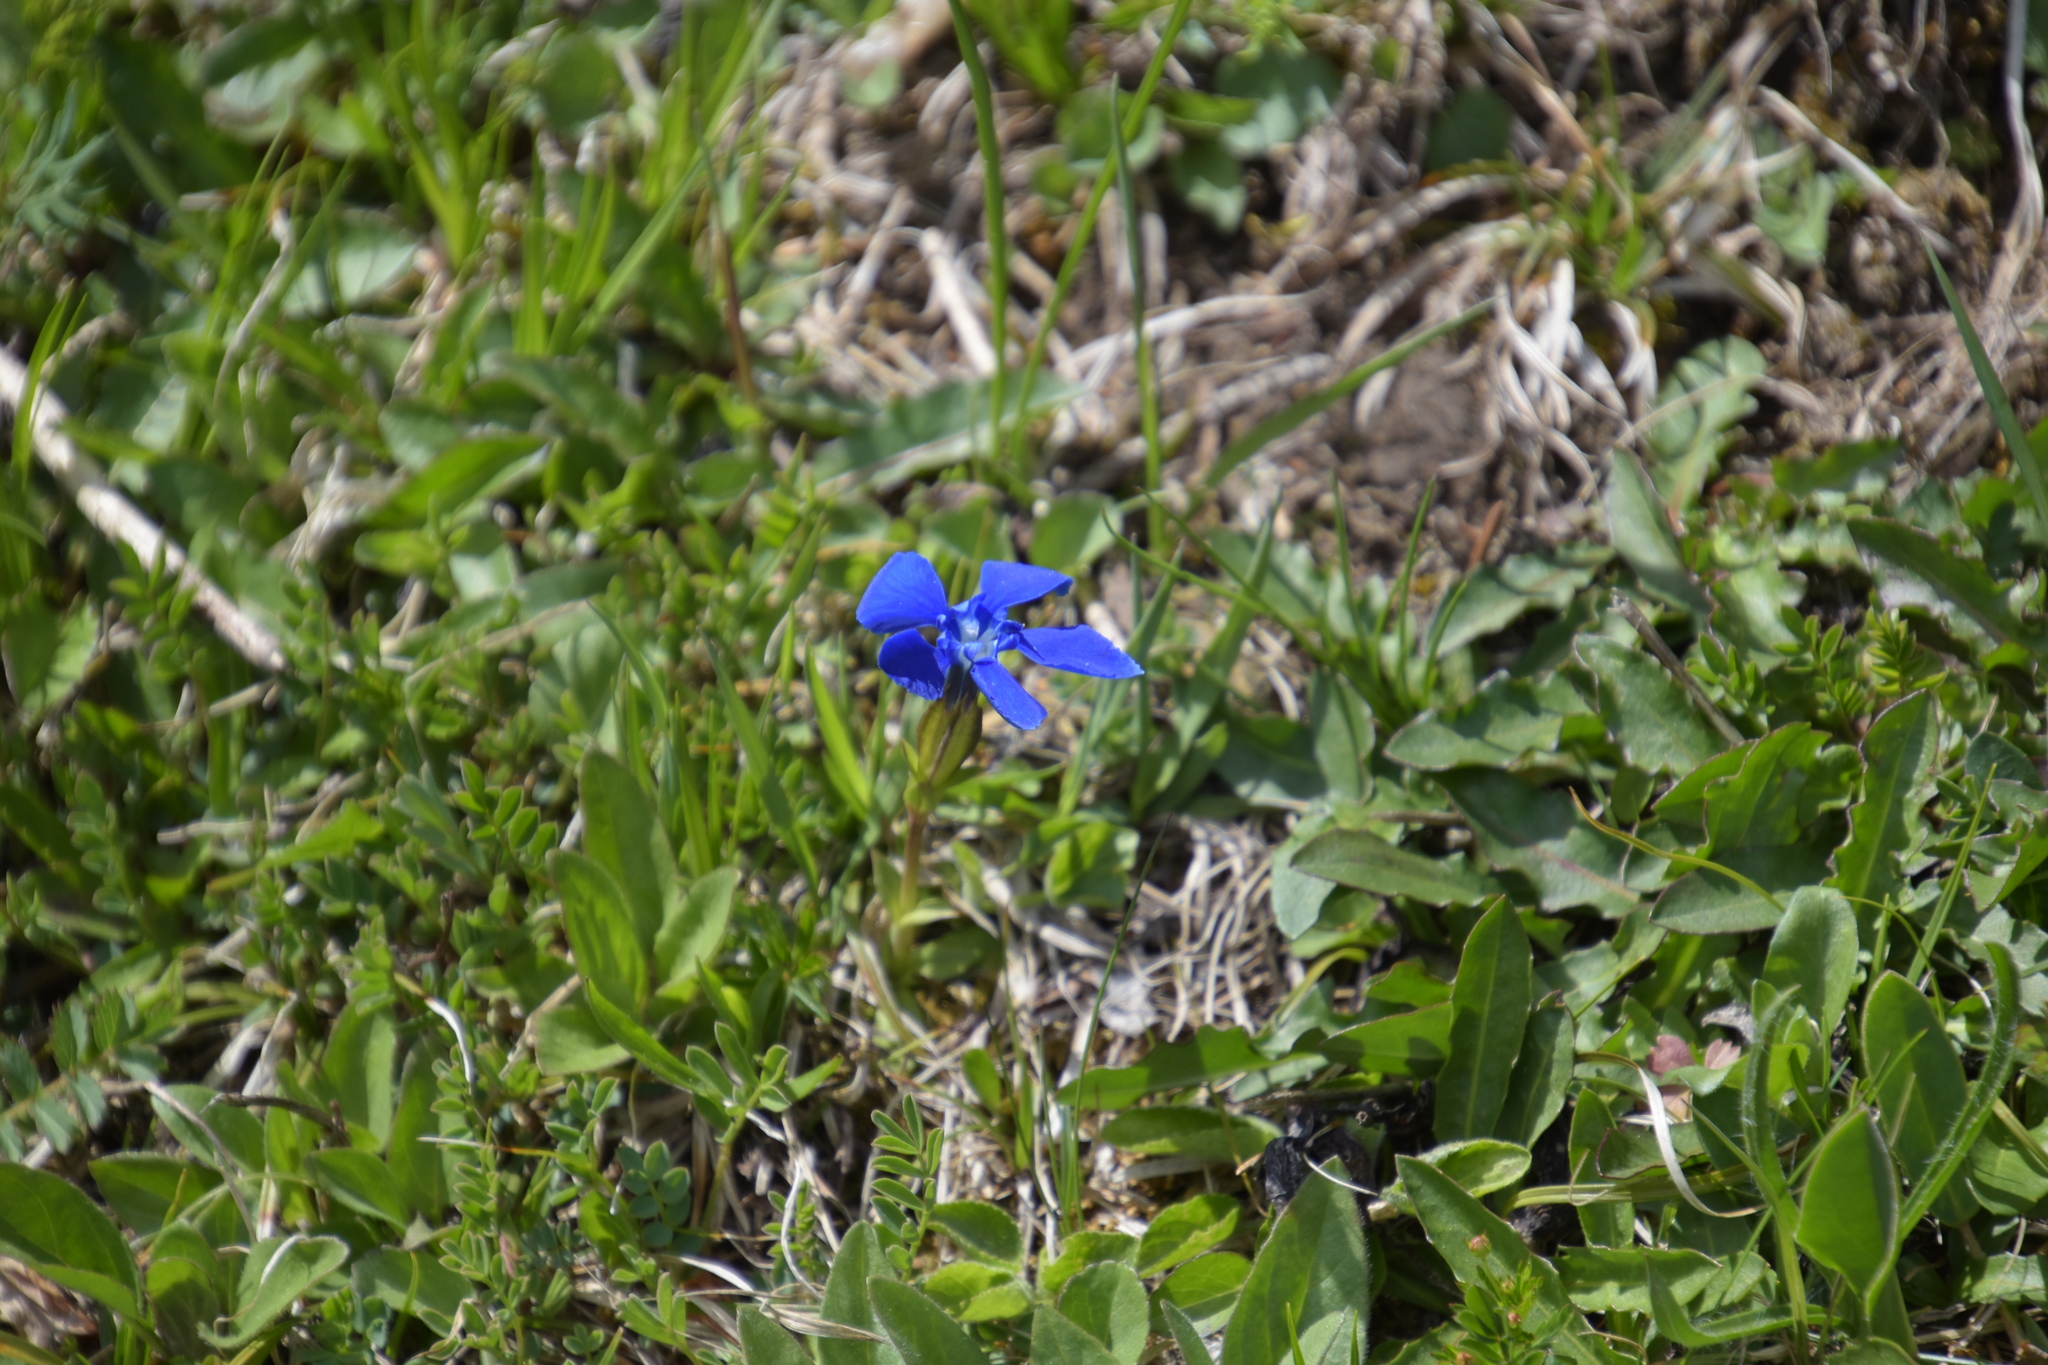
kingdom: Plantae
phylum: Tracheophyta
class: Magnoliopsida
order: Gentianales
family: Gentianaceae
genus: Gentiana
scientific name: Gentiana verna
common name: Spring gentian
